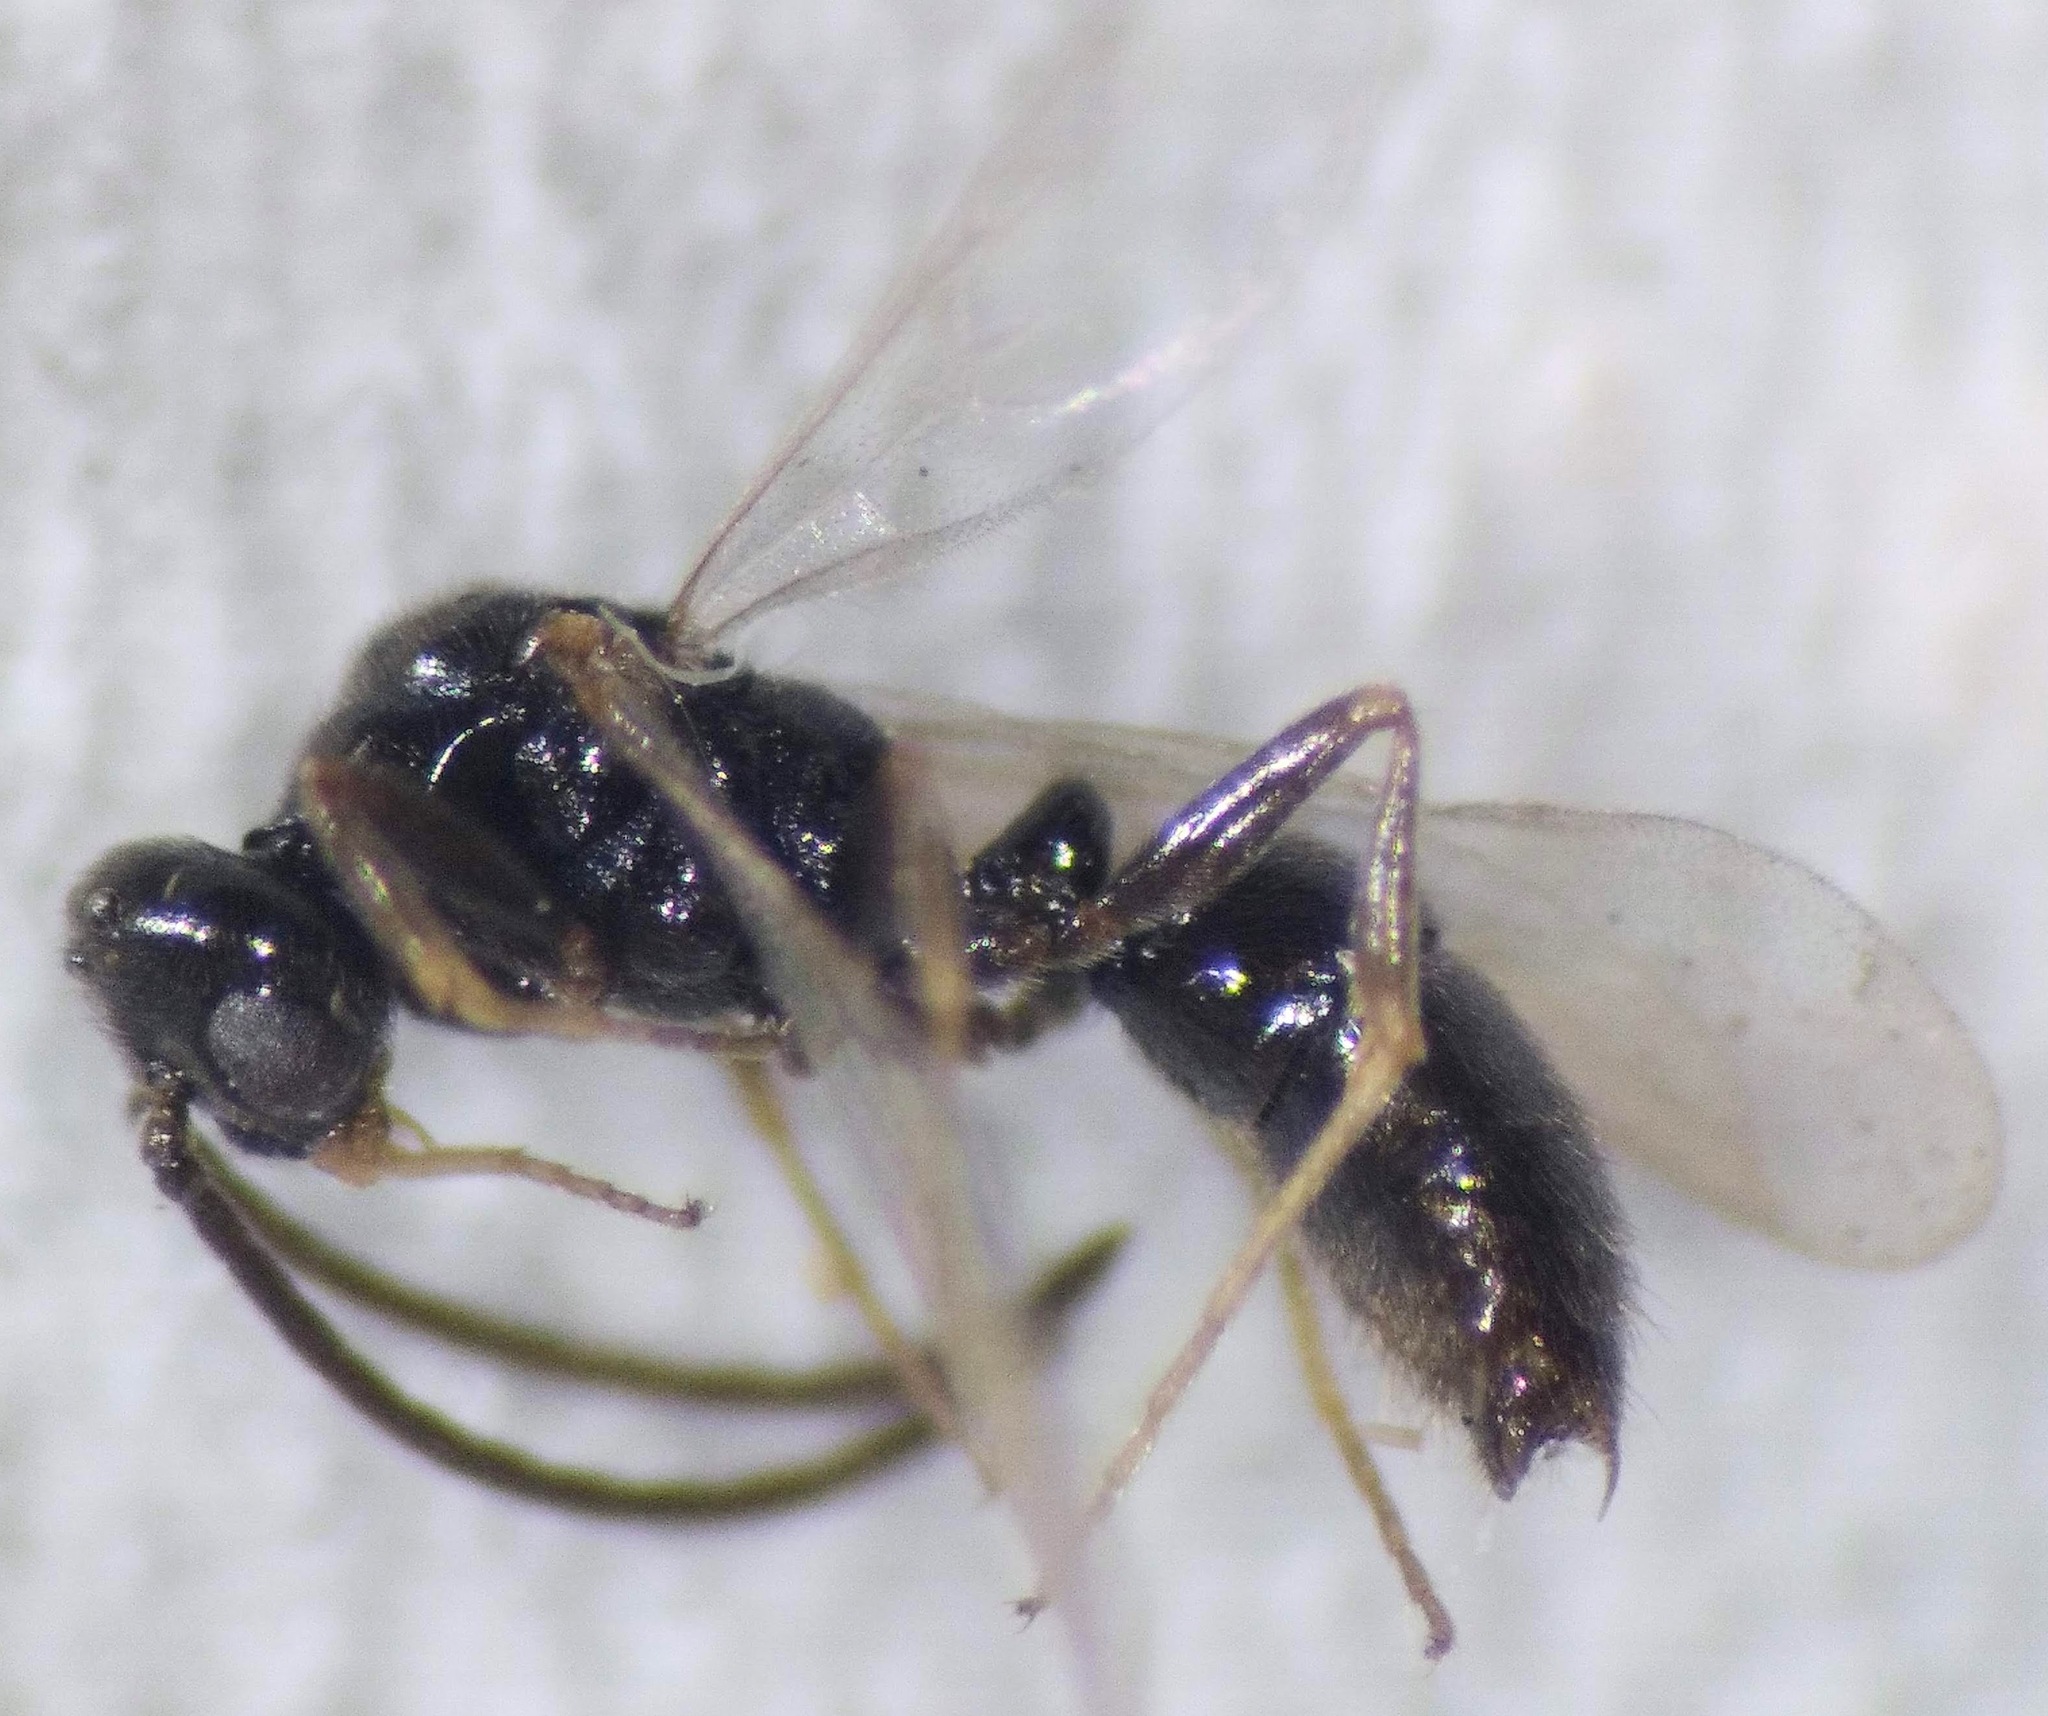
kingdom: Animalia
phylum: Arthropoda
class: Insecta
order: Hymenoptera
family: Formicidae
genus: Ponera
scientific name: Ponera pennsylvanica
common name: Pennsylvania ponera
